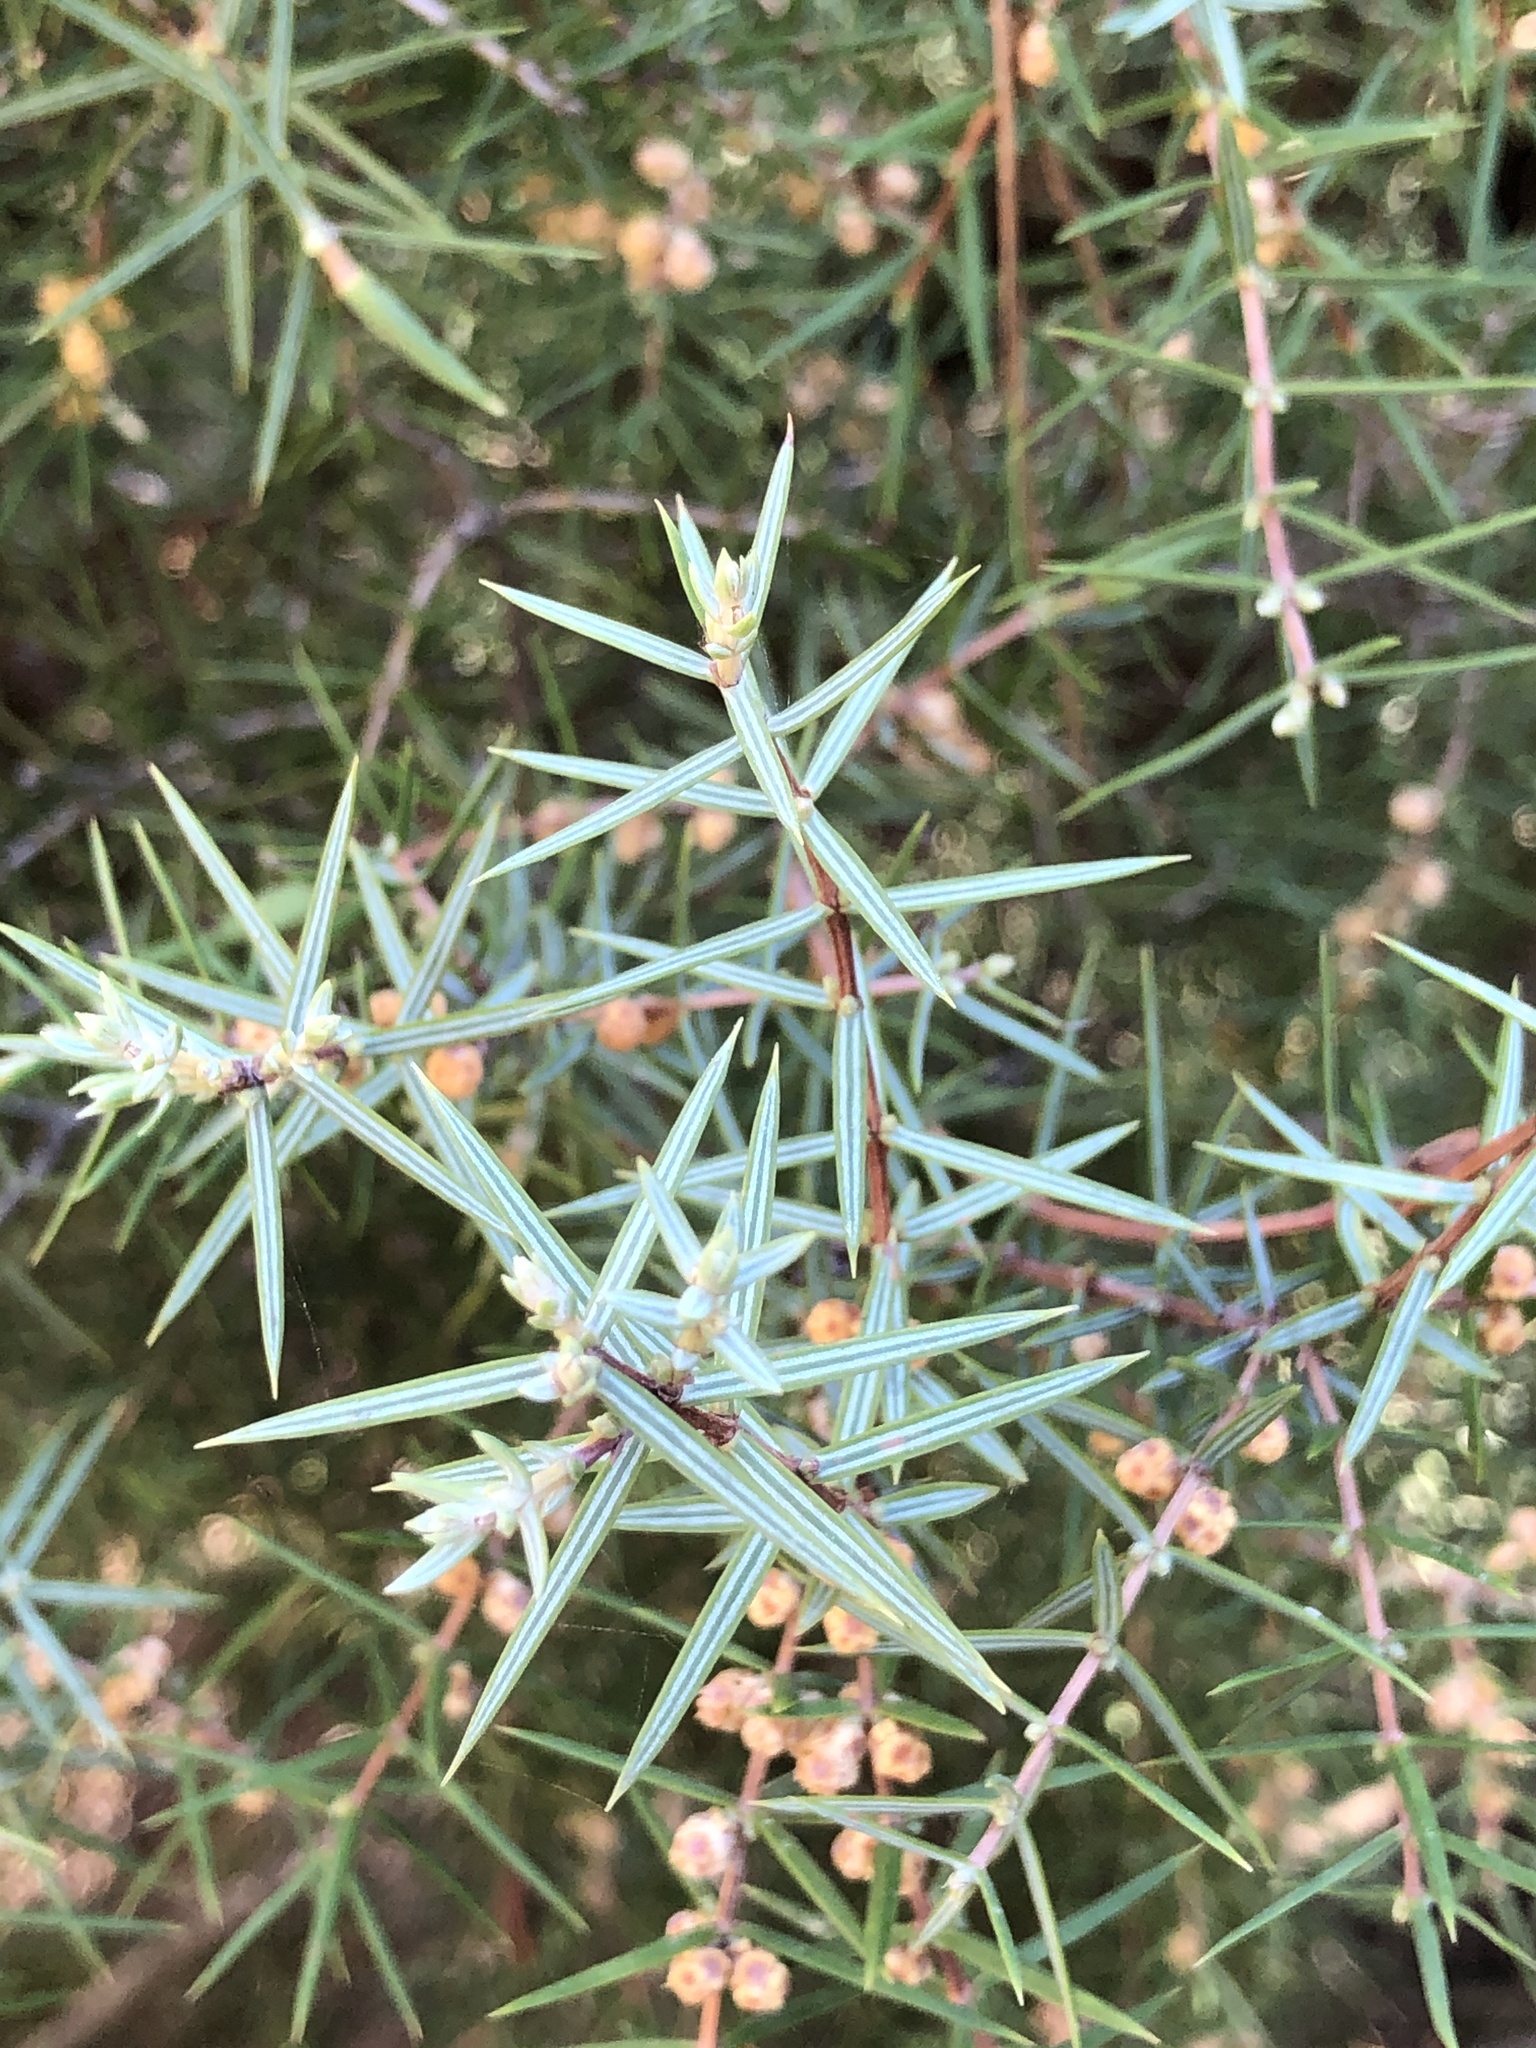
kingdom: Plantae
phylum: Tracheophyta
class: Pinopsida
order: Pinales
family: Cupressaceae
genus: Juniperus
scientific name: Juniperus oxycedrus
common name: Prickly juniper
